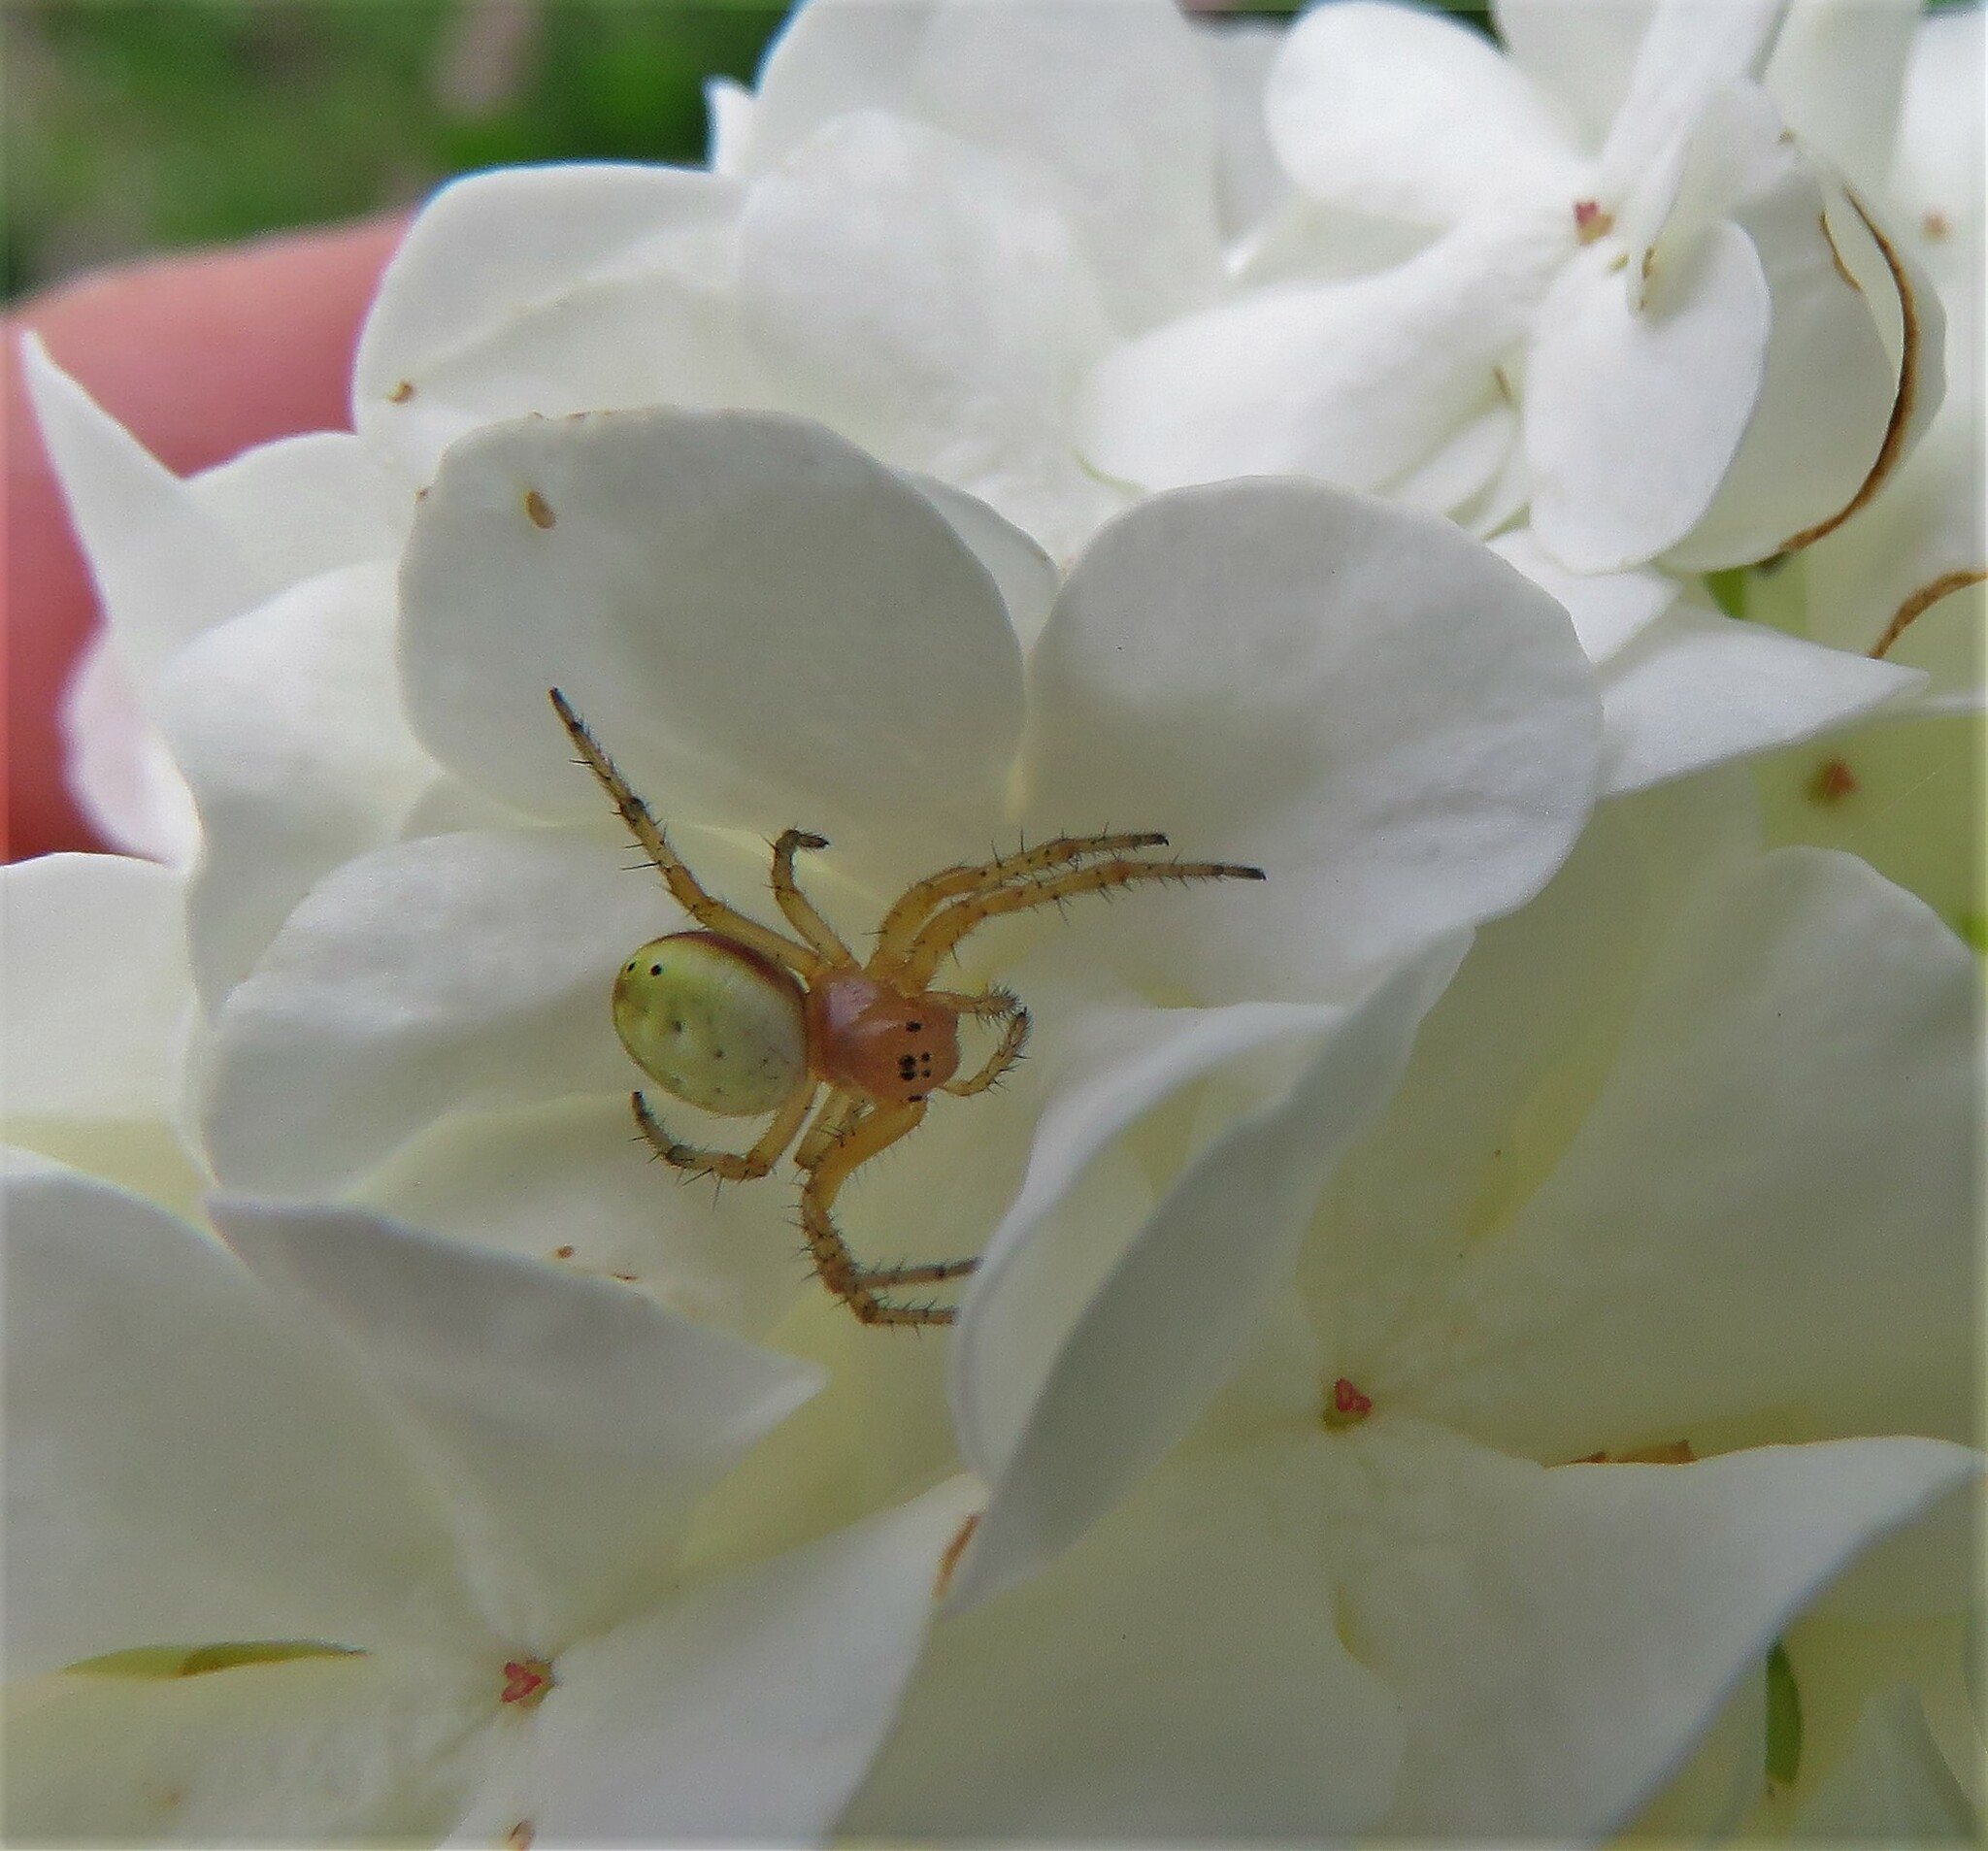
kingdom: Animalia
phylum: Arthropoda
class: Arachnida
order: Araneae
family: Araneidae
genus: Araniella
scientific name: Araniella displicata
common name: Sixspotted orb weaver
